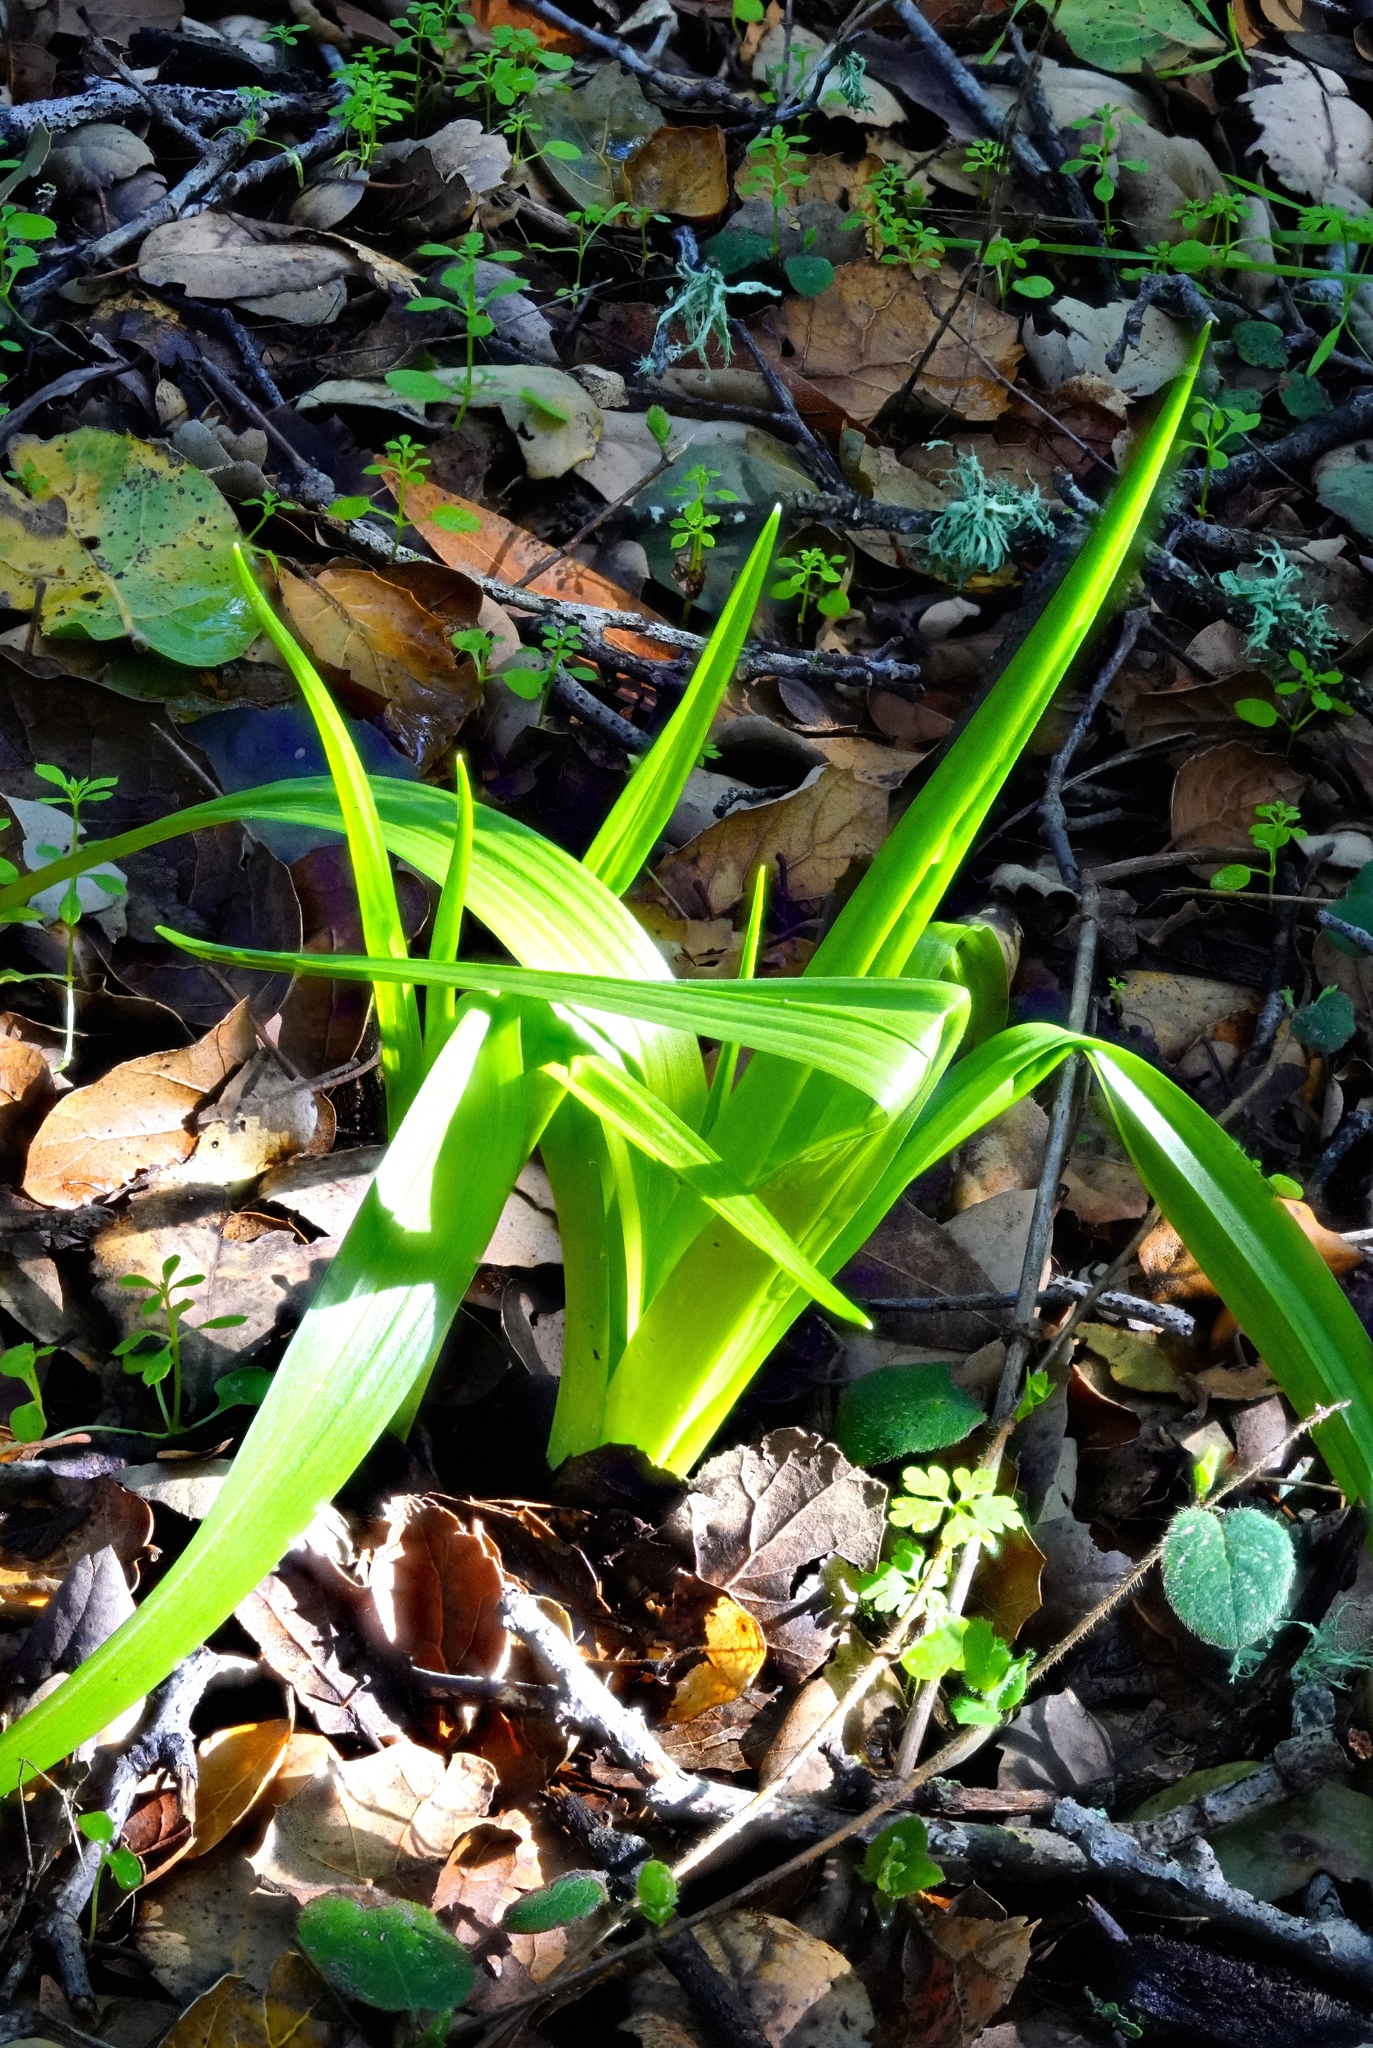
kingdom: Plantae
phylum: Tracheophyta
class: Liliopsida
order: Liliales
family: Melanthiaceae
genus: Toxicoscordion
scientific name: Toxicoscordion fremontii
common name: Fremont's death camas
